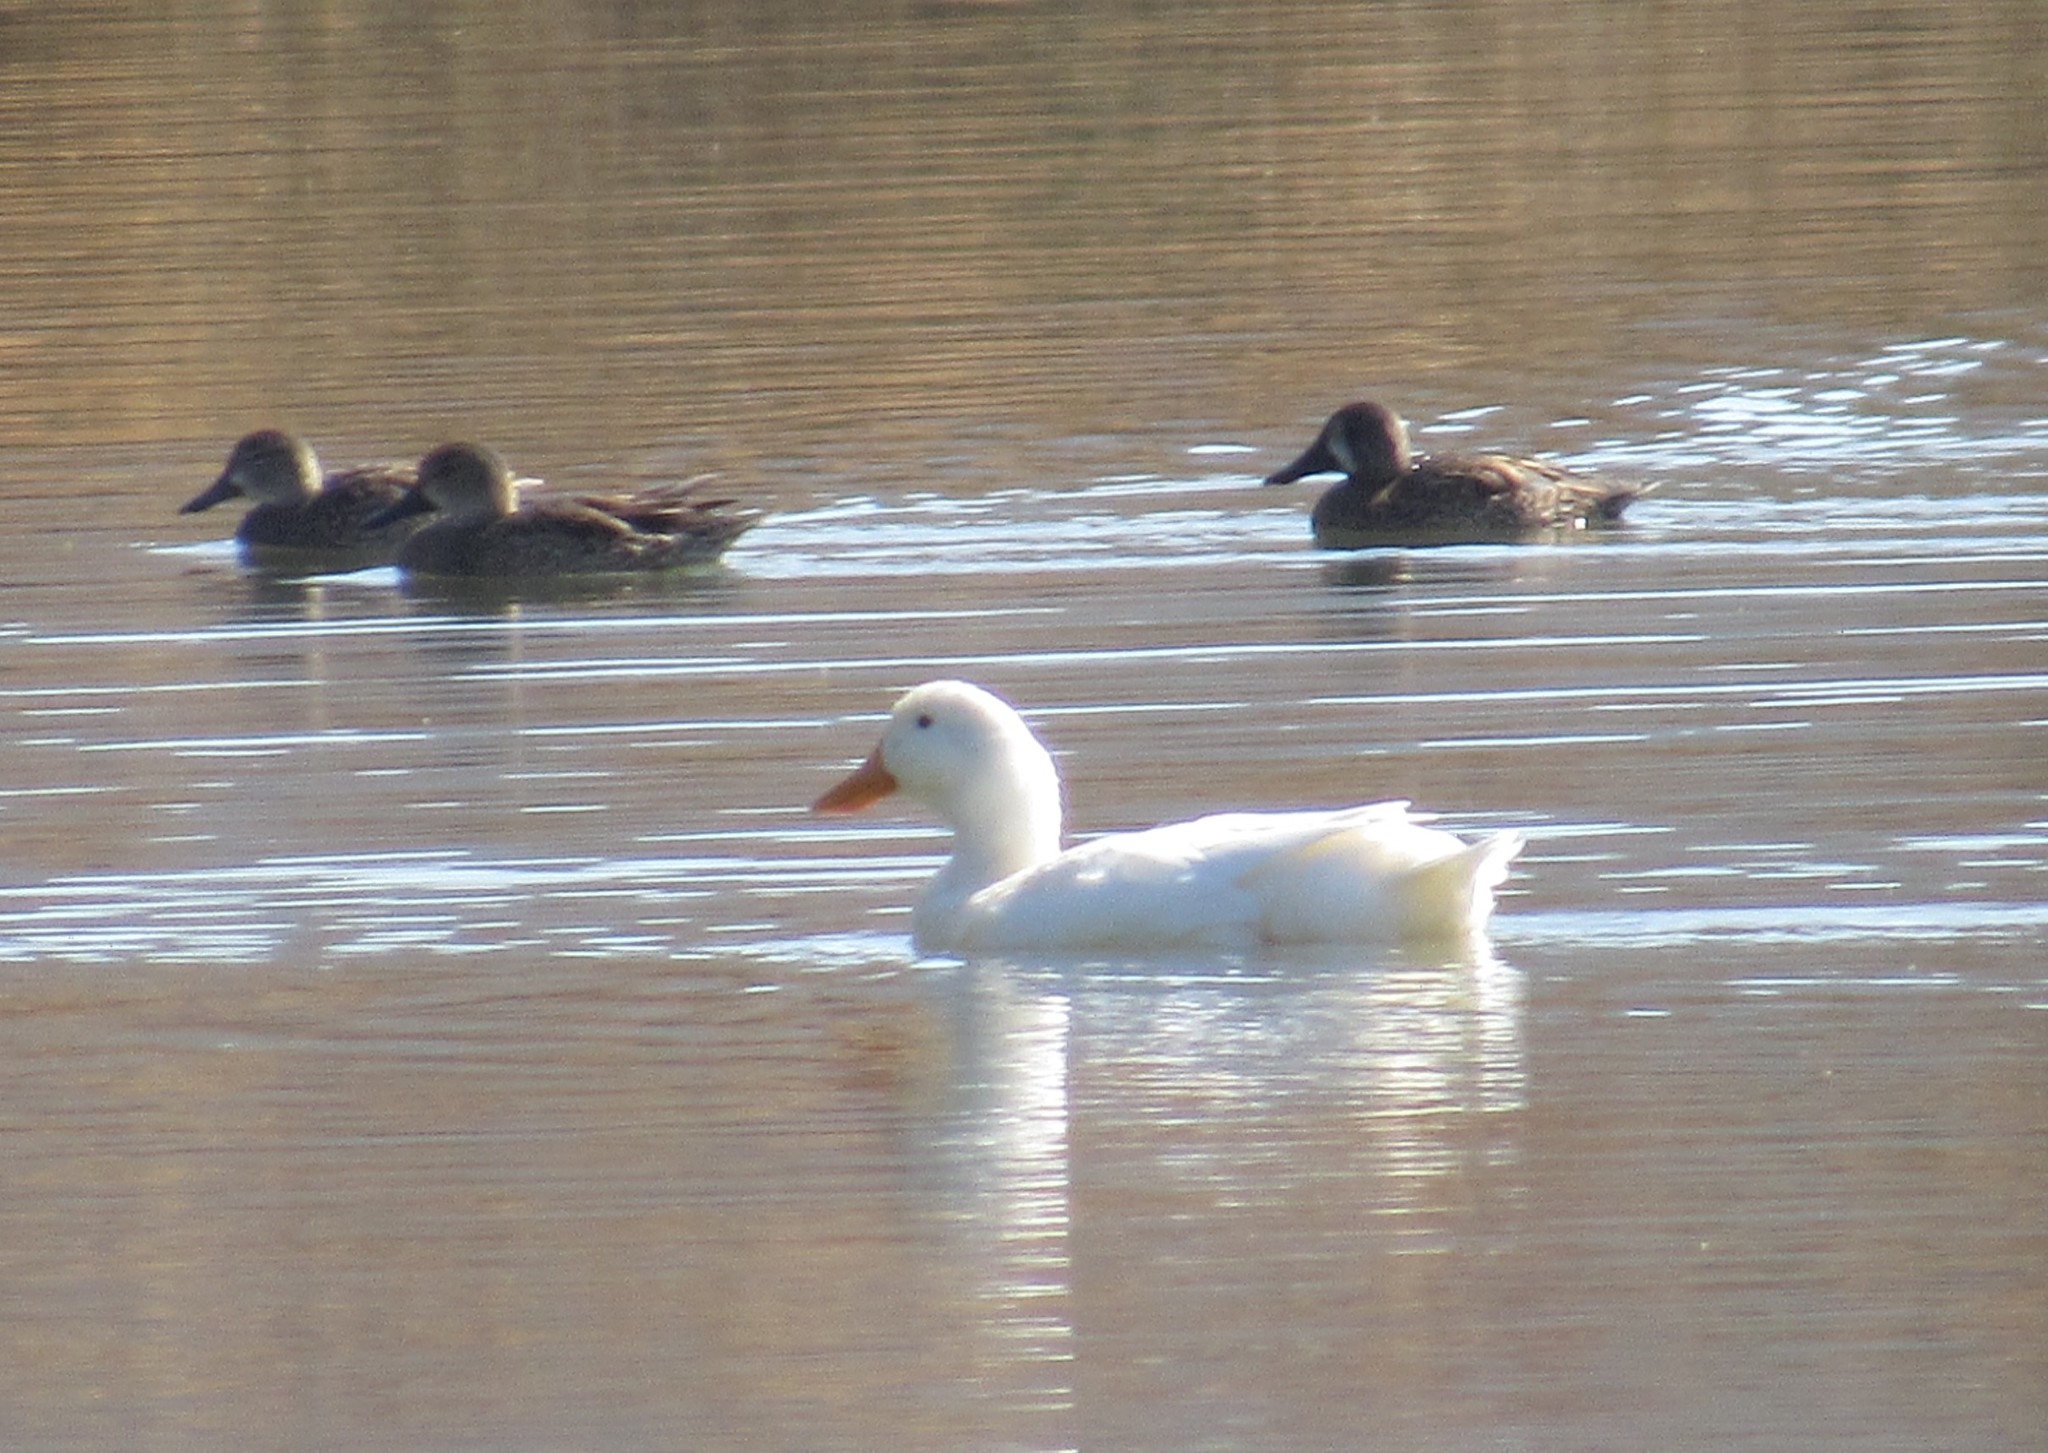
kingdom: Animalia
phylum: Chordata
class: Aves
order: Anseriformes
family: Anatidae
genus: Anas
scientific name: Anas platyrhynchos
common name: Mallard
